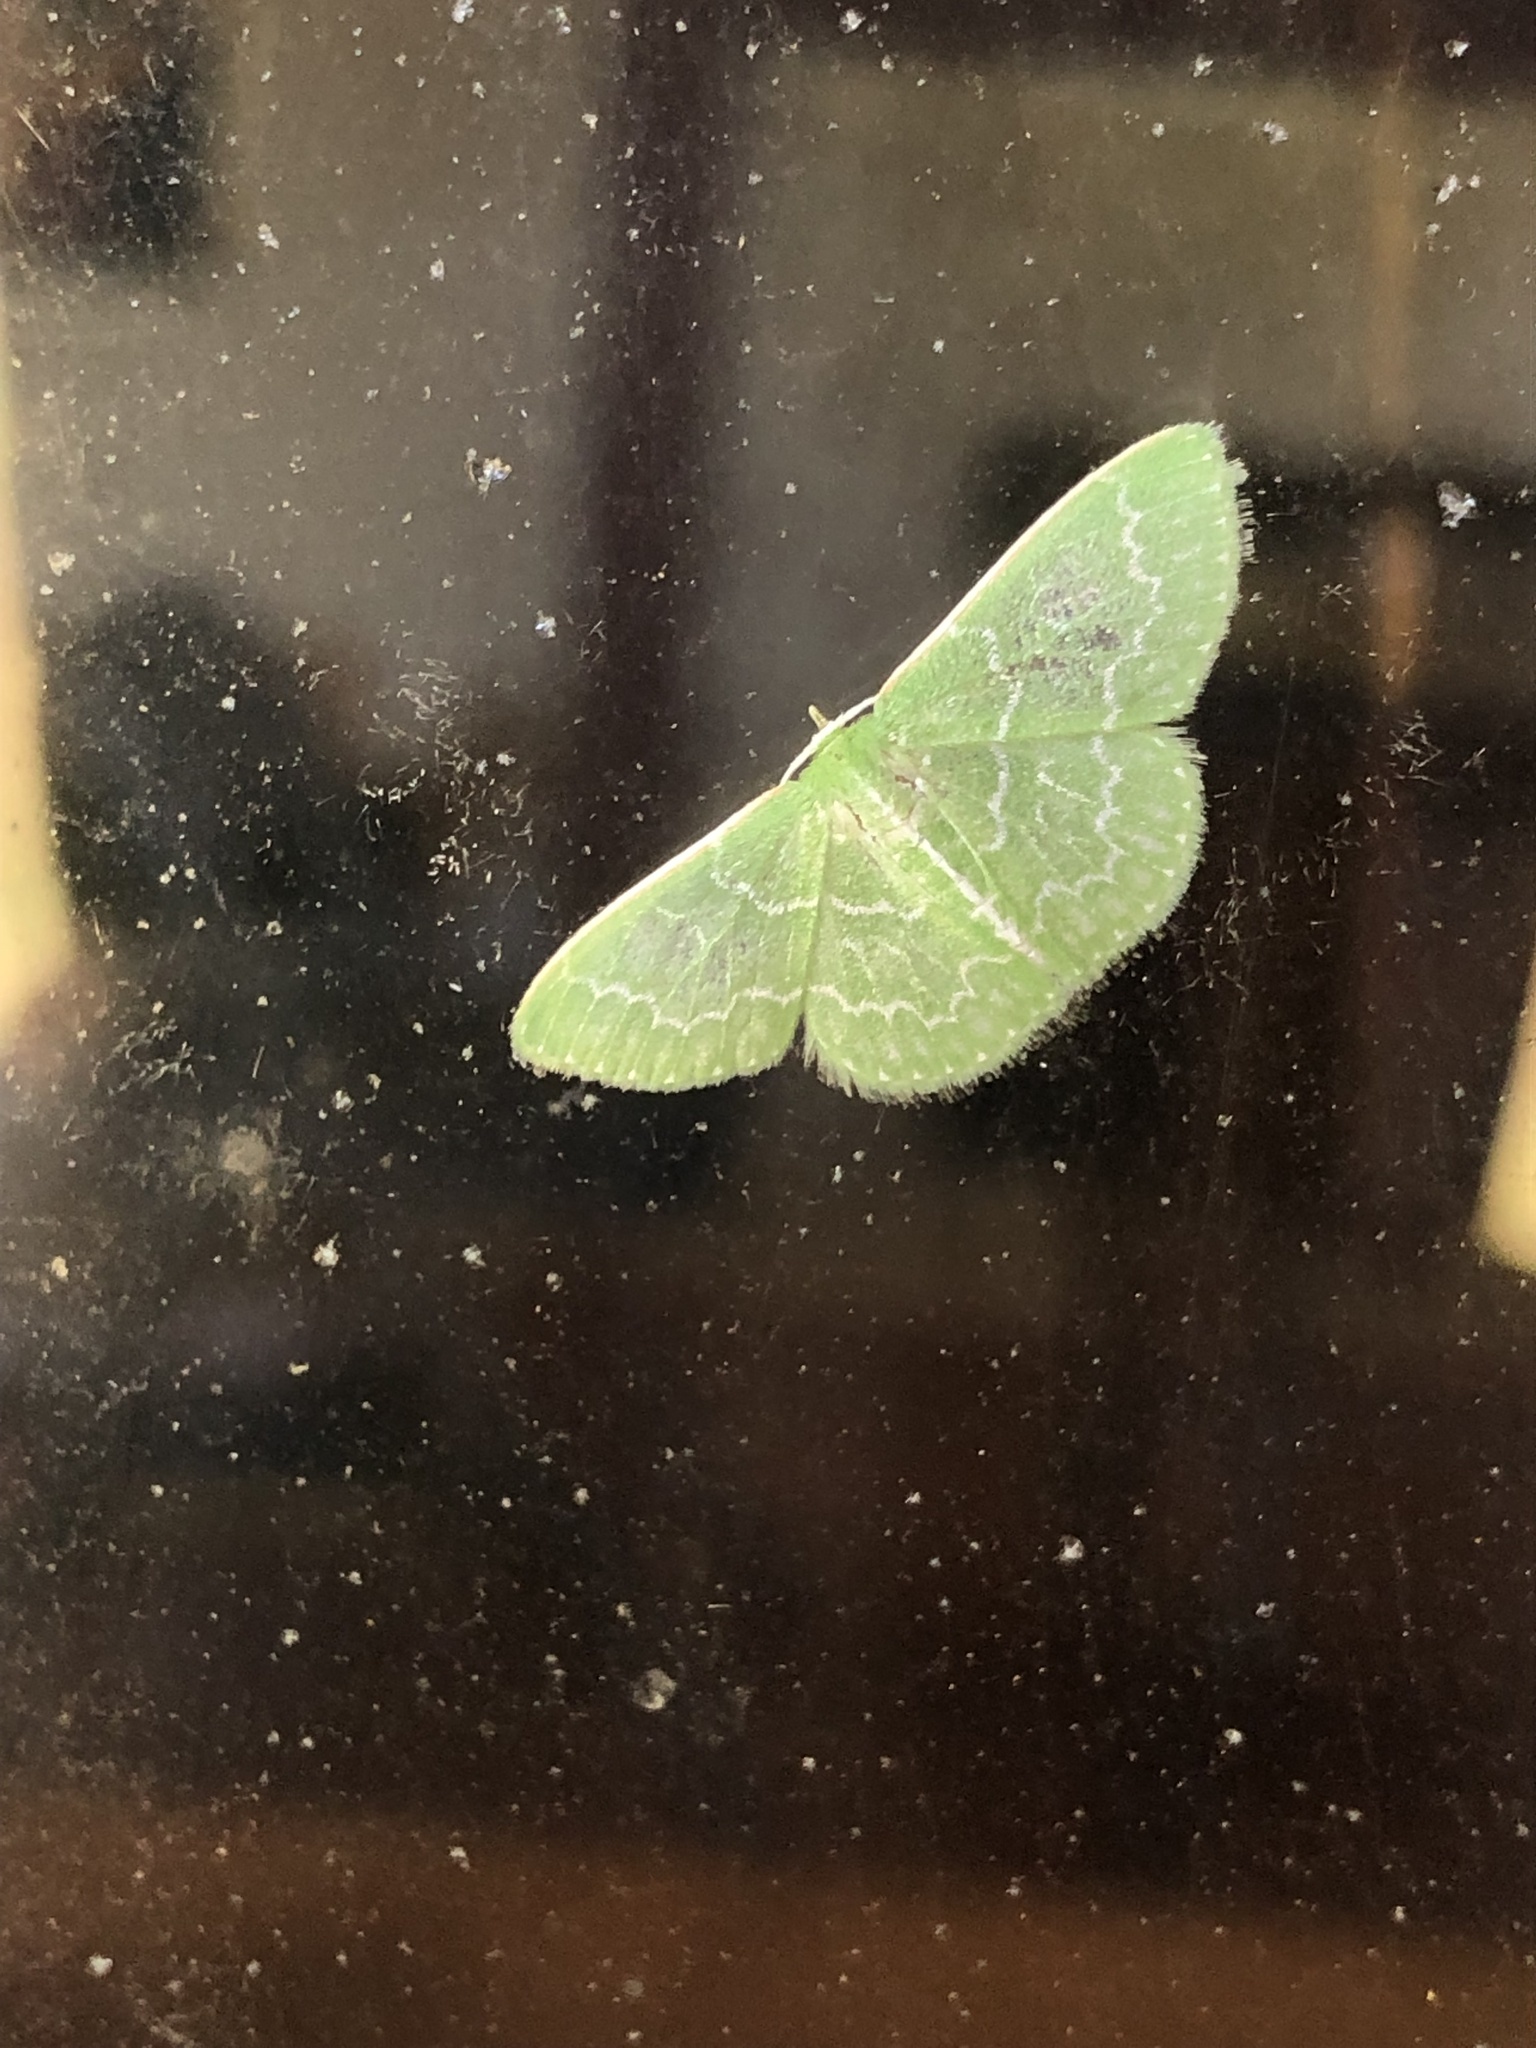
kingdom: Animalia
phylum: Arthropoda
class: Insecta
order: Lepidoptera
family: Geometridae
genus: Synchlora
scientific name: Synchlora frondaria
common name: Southern emerald
